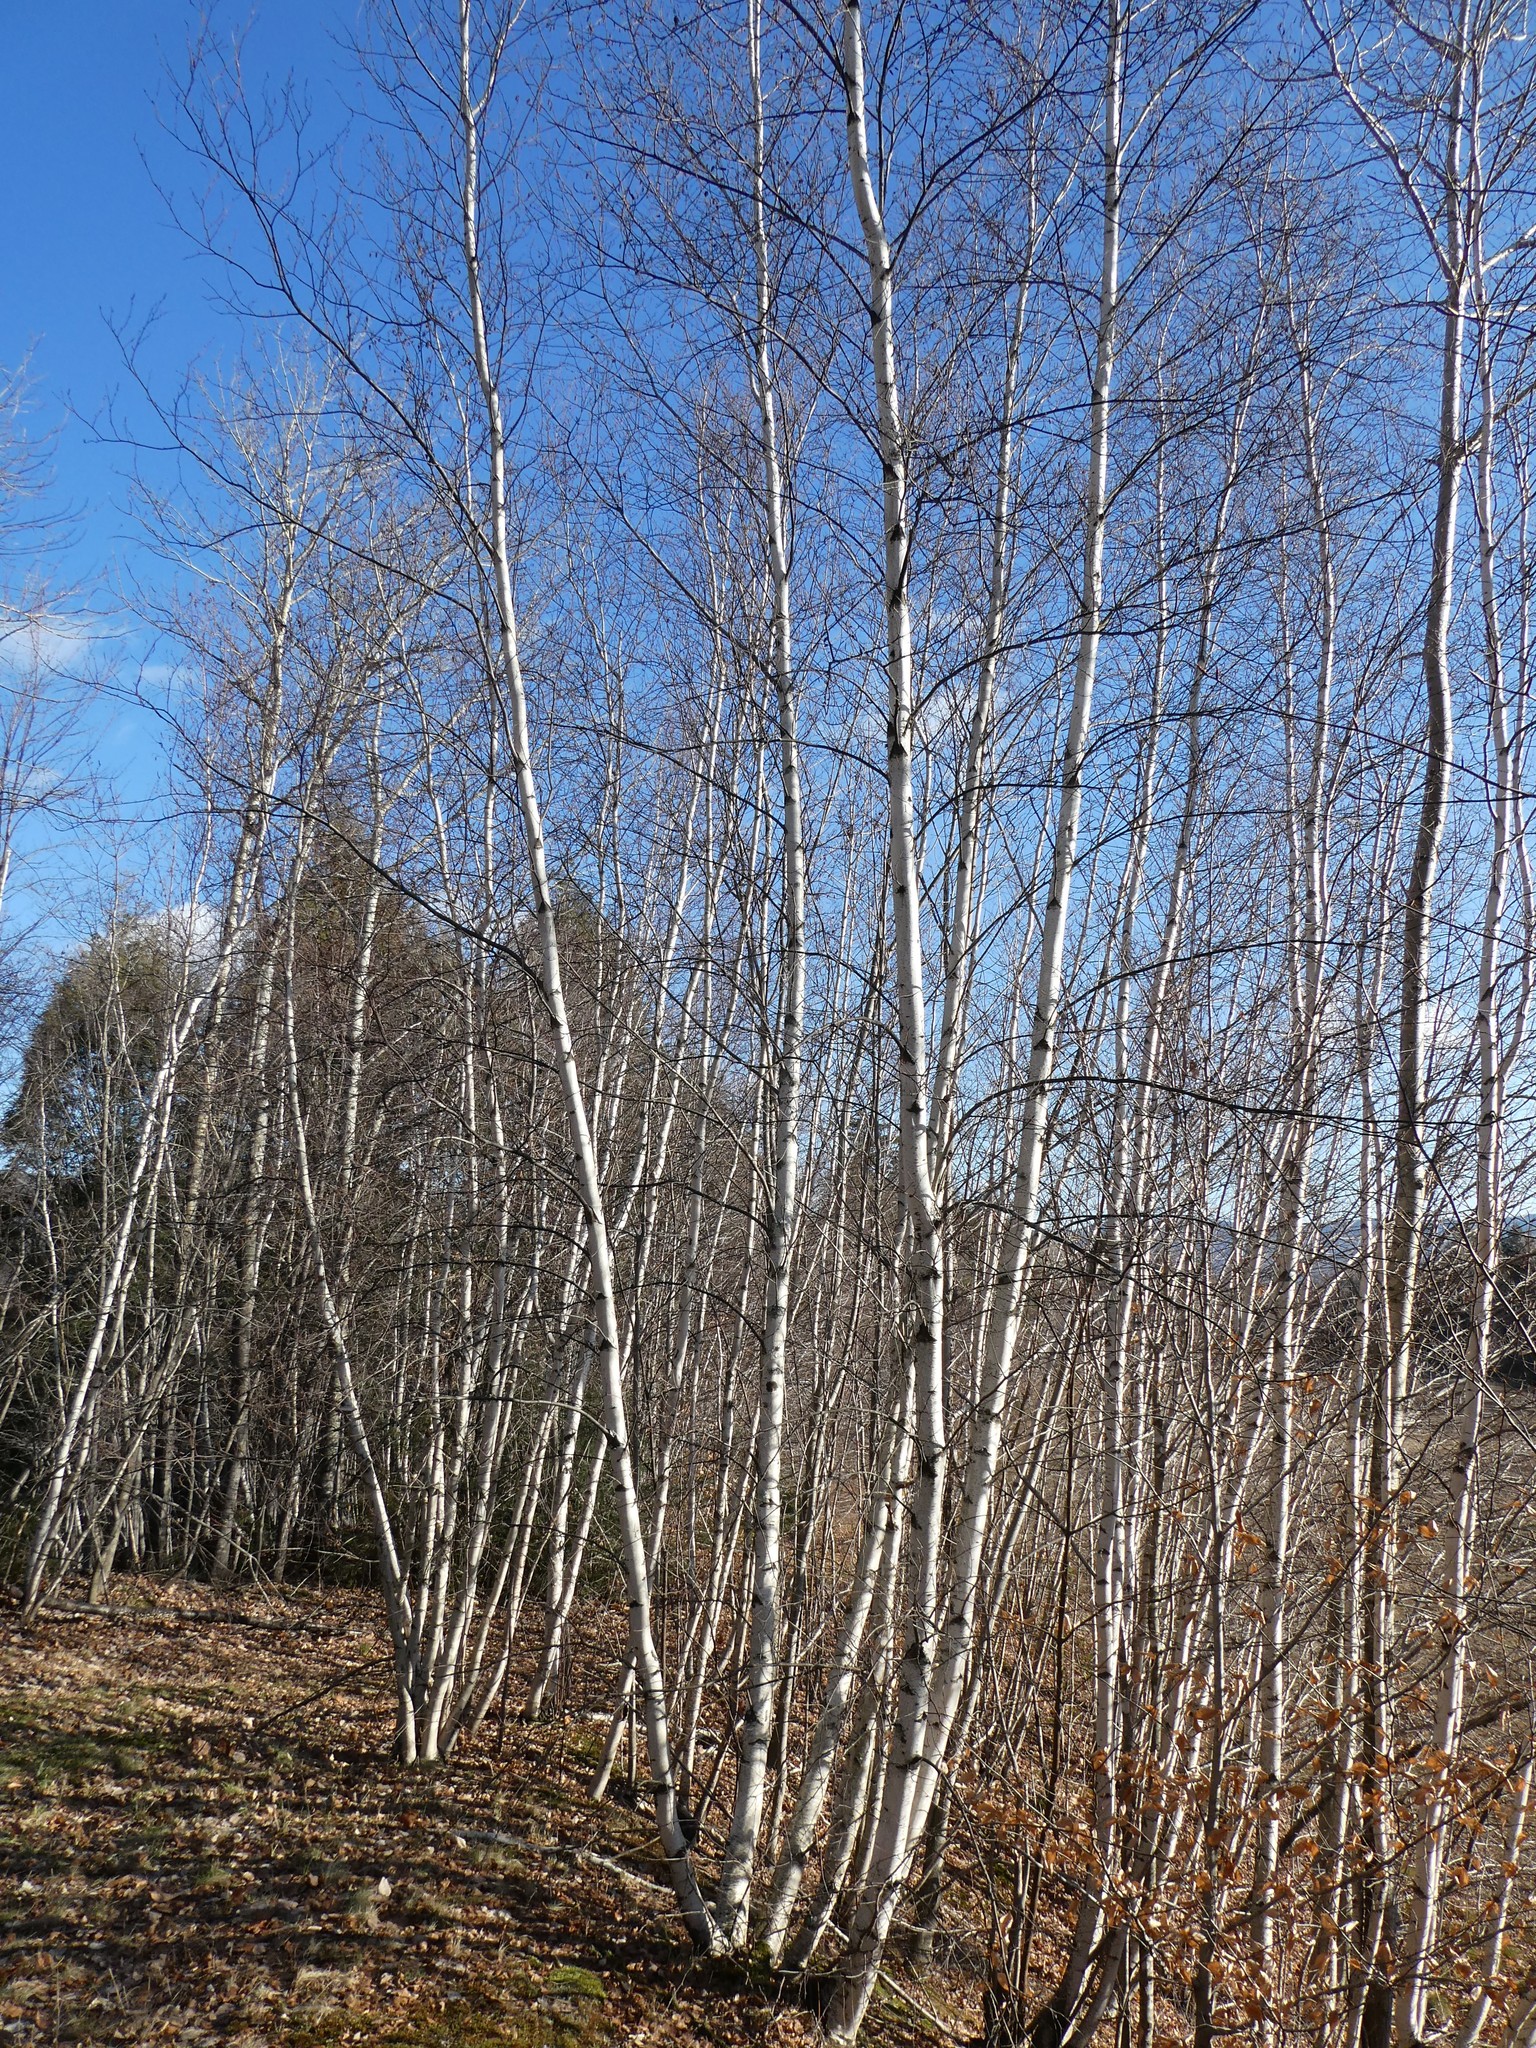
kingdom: Plantae
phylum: Tracheophyta
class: Magnoliopsida
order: Fagales
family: Betulaceae
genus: Betula
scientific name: Betula populifolia
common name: Fire birch
